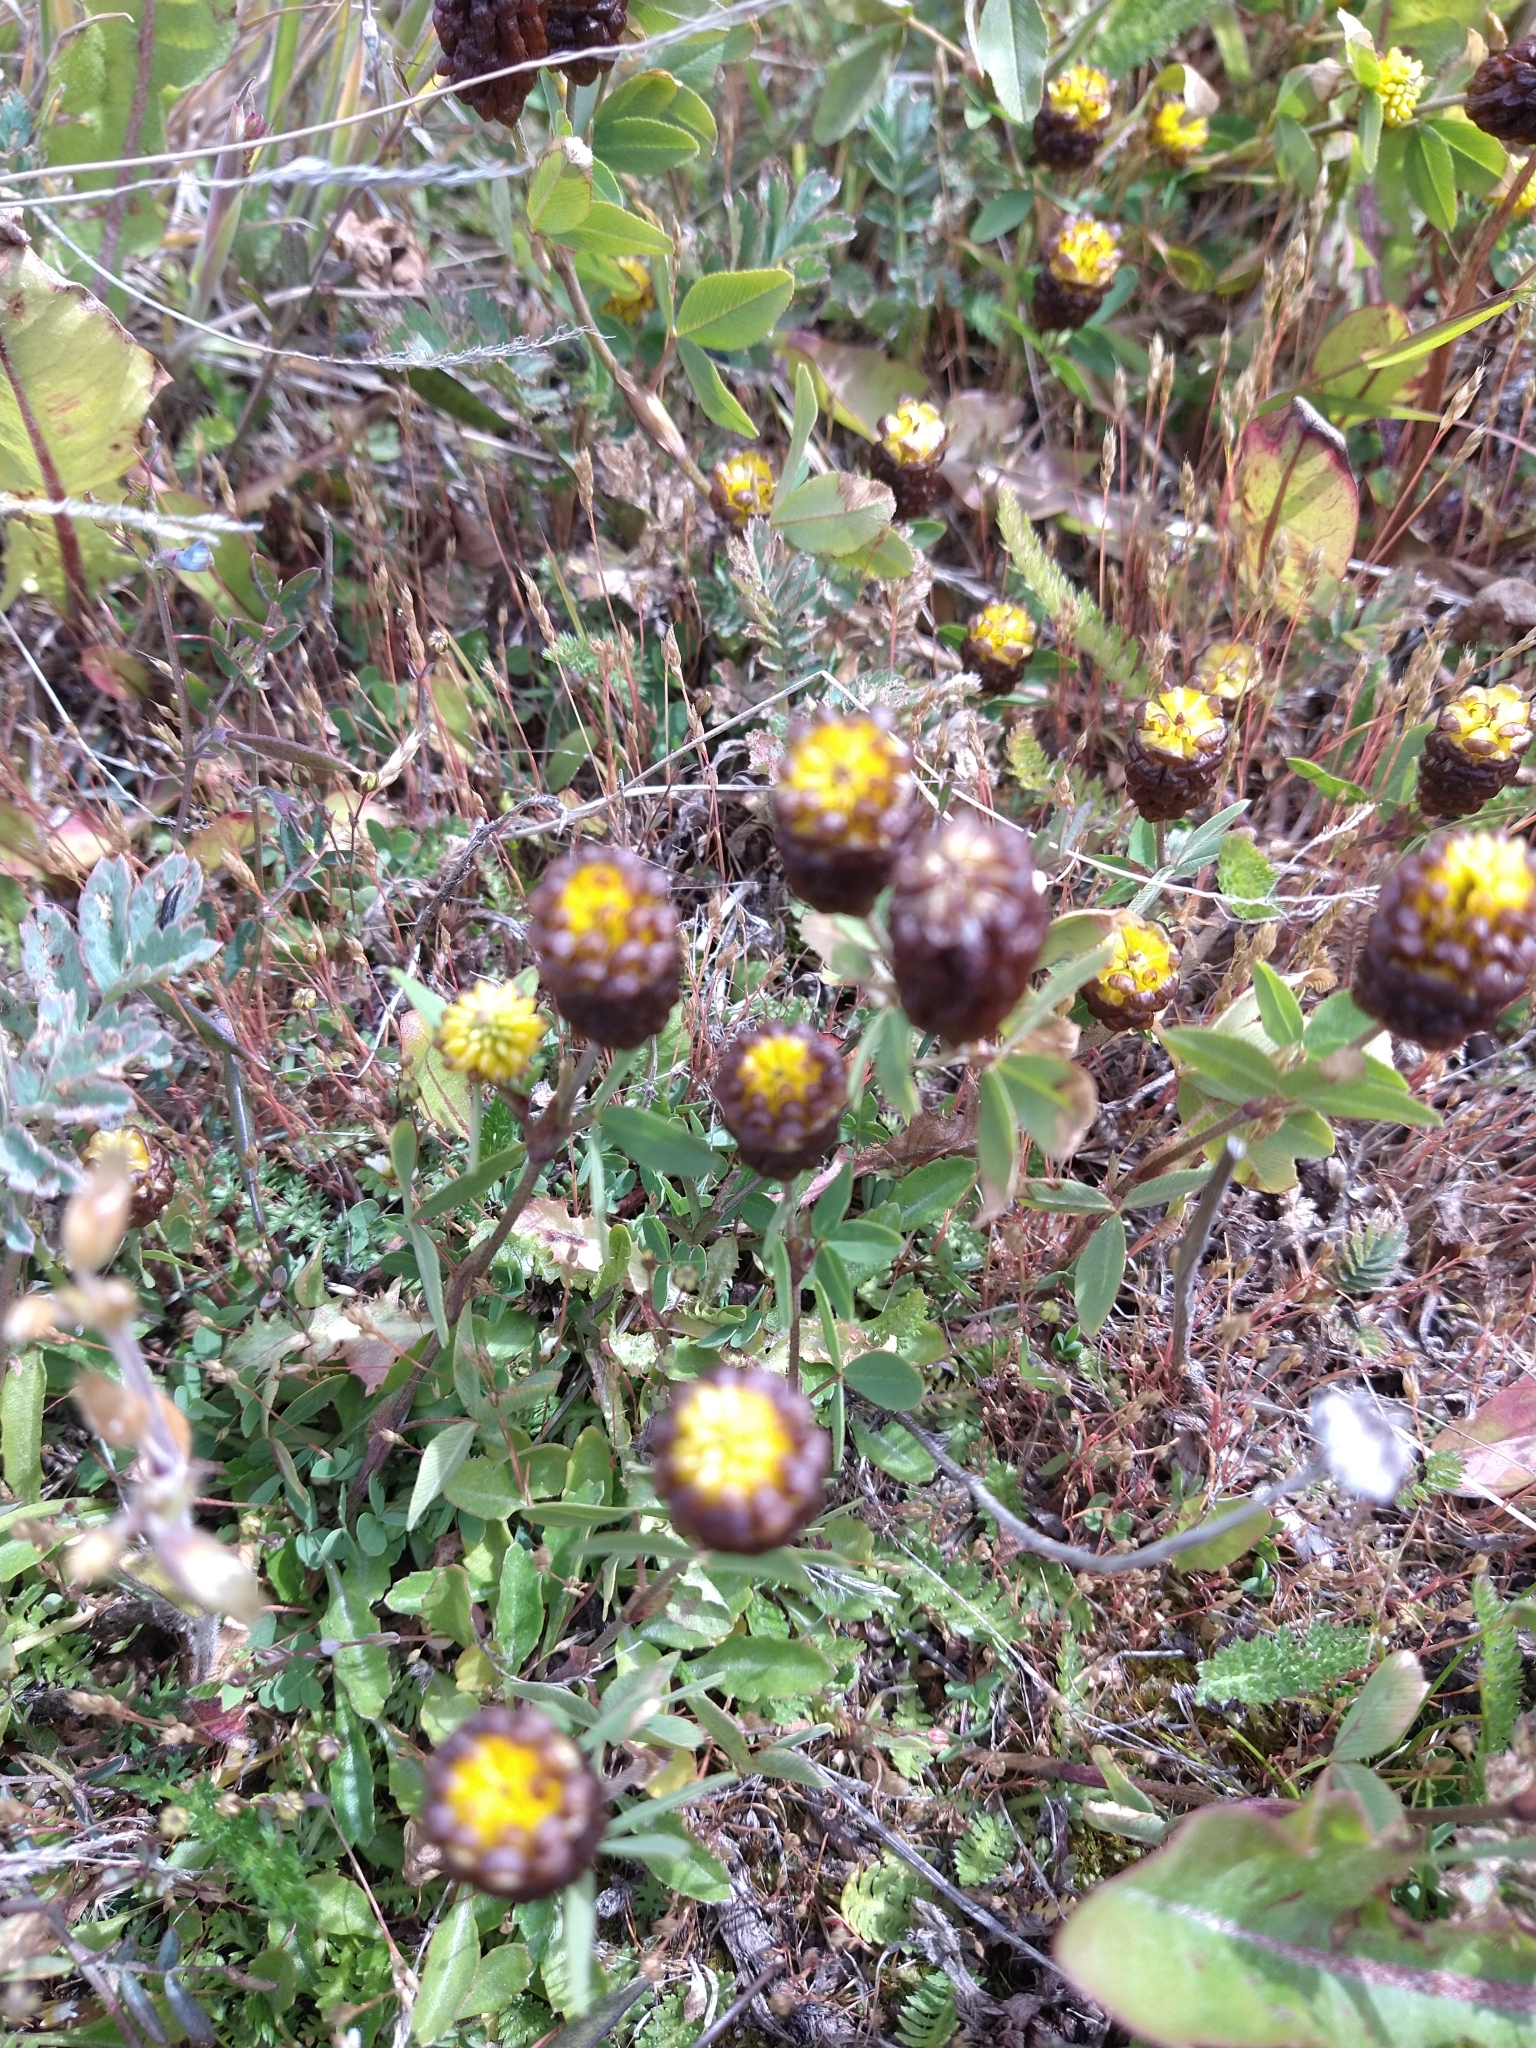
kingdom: Plantae
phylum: Tracheophyta
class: Magnoliopsida
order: Fabales
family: Fabaceae
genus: Trifolium
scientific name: Trifolium spadiceum
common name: Brown moor clover
